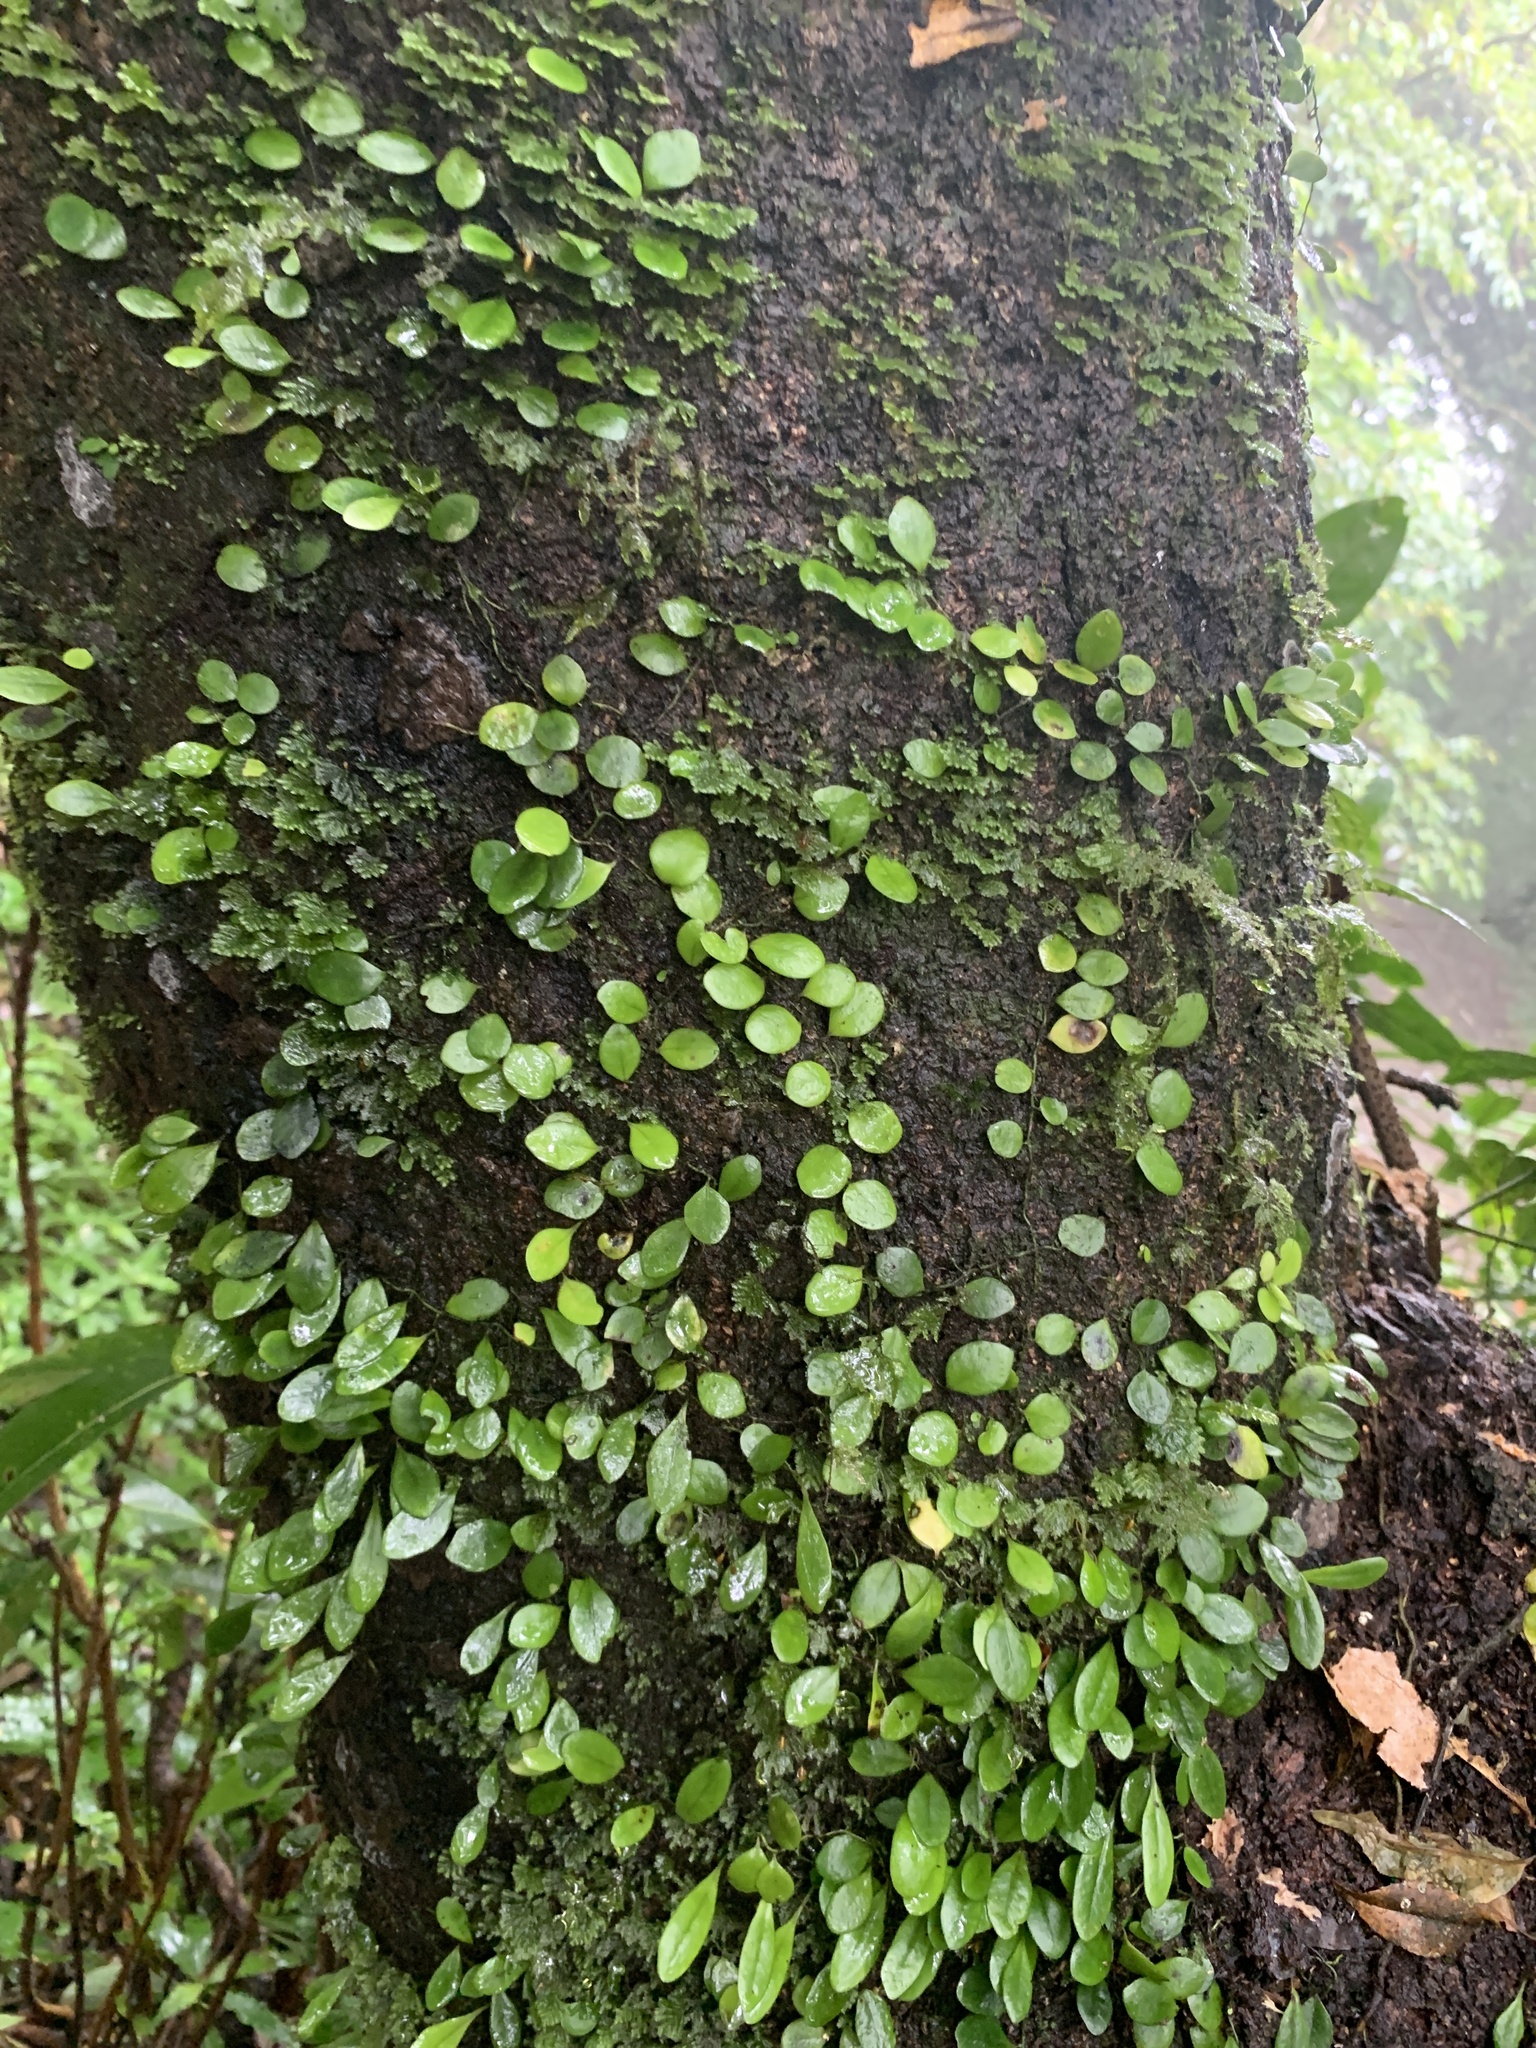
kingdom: Plantae
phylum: Tracheophyta
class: Polypodiopsida
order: Polypodiales
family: Polypodiaceae
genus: Lepisorus
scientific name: Lepisorus microphyllus
